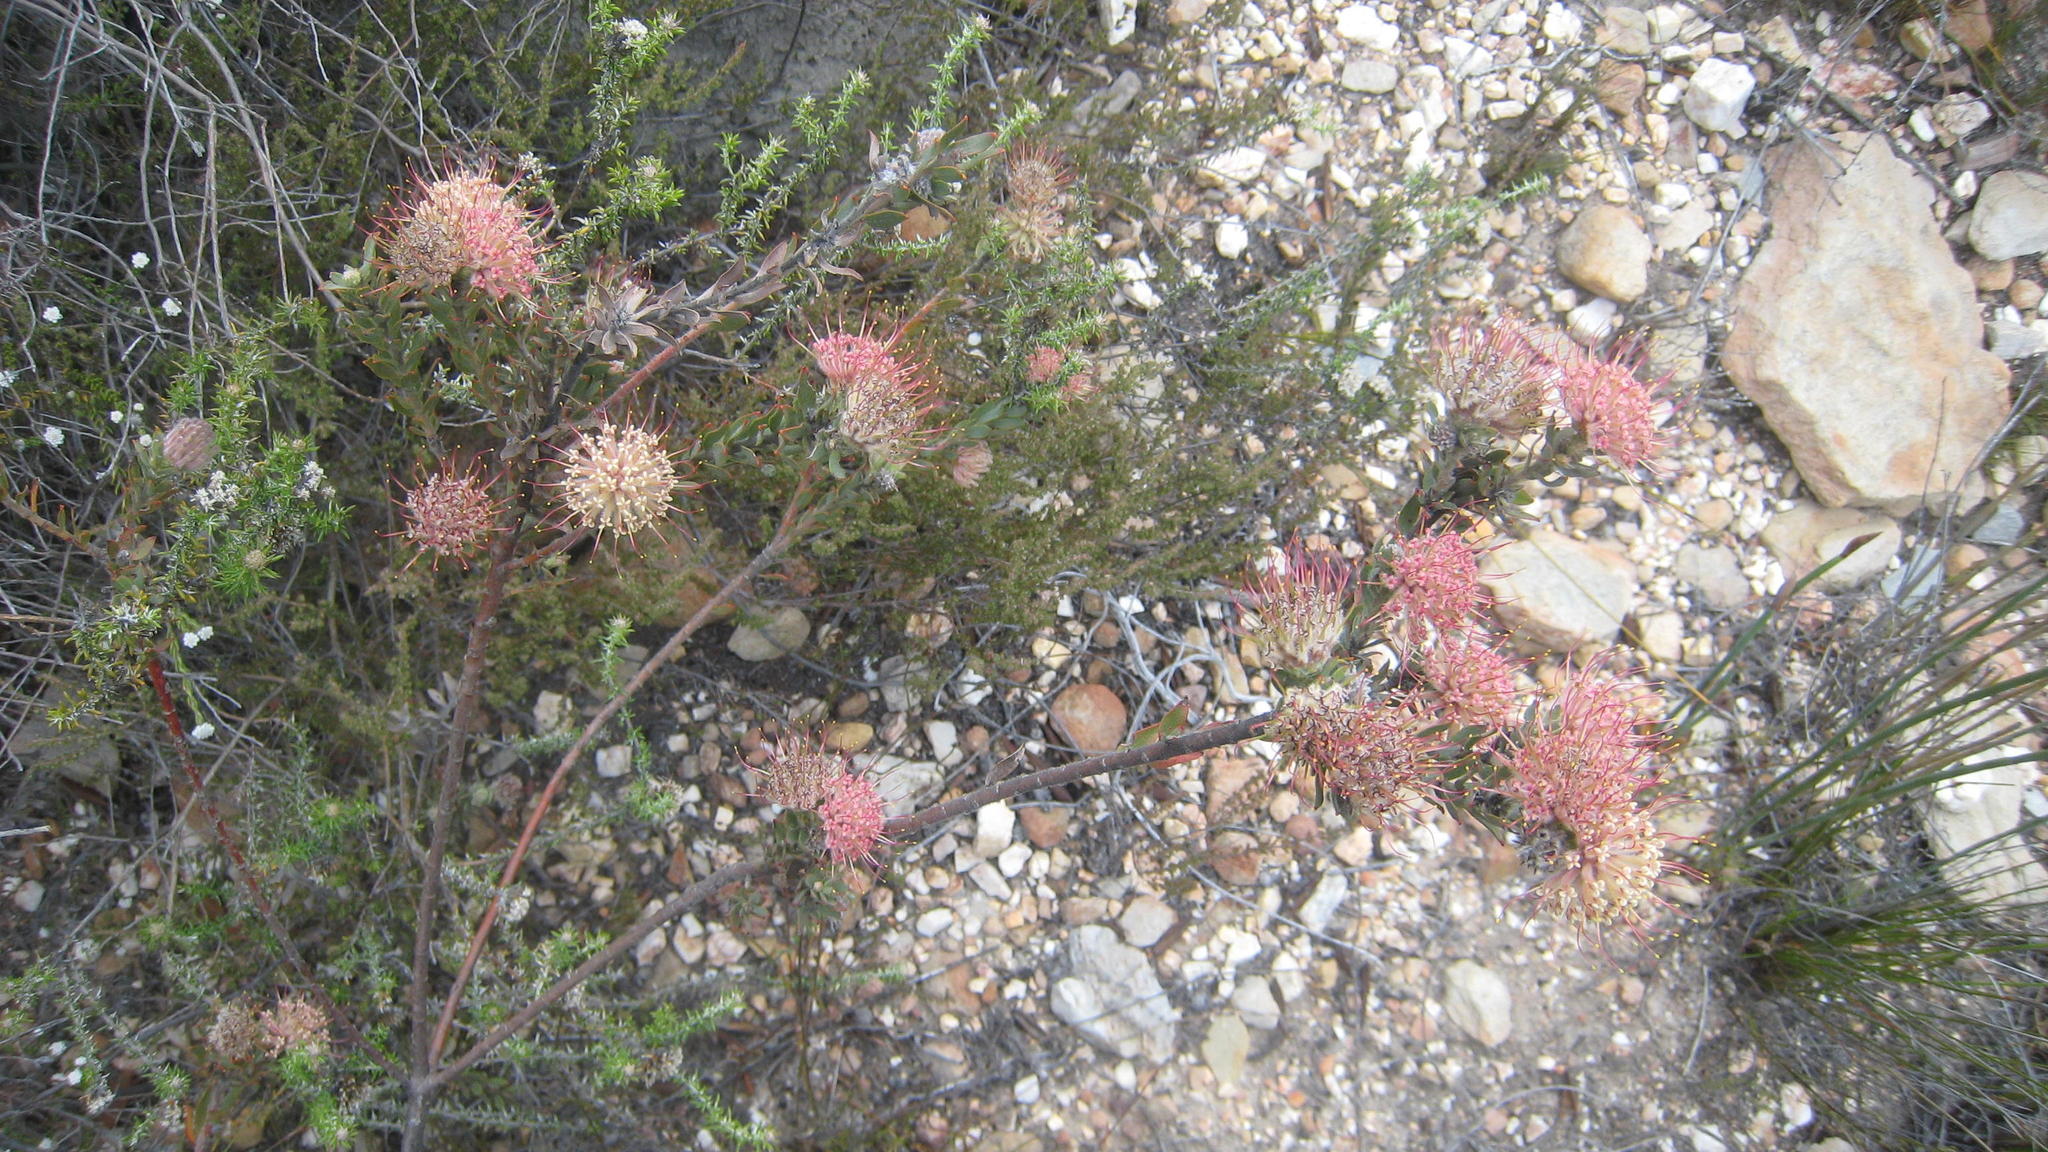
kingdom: Plantae
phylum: Tracheophyta
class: Magnoliopsida
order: Proteales
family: Proteaceae
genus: Leucospermum
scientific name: Leucospermum calligerum
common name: Arid pincushion
